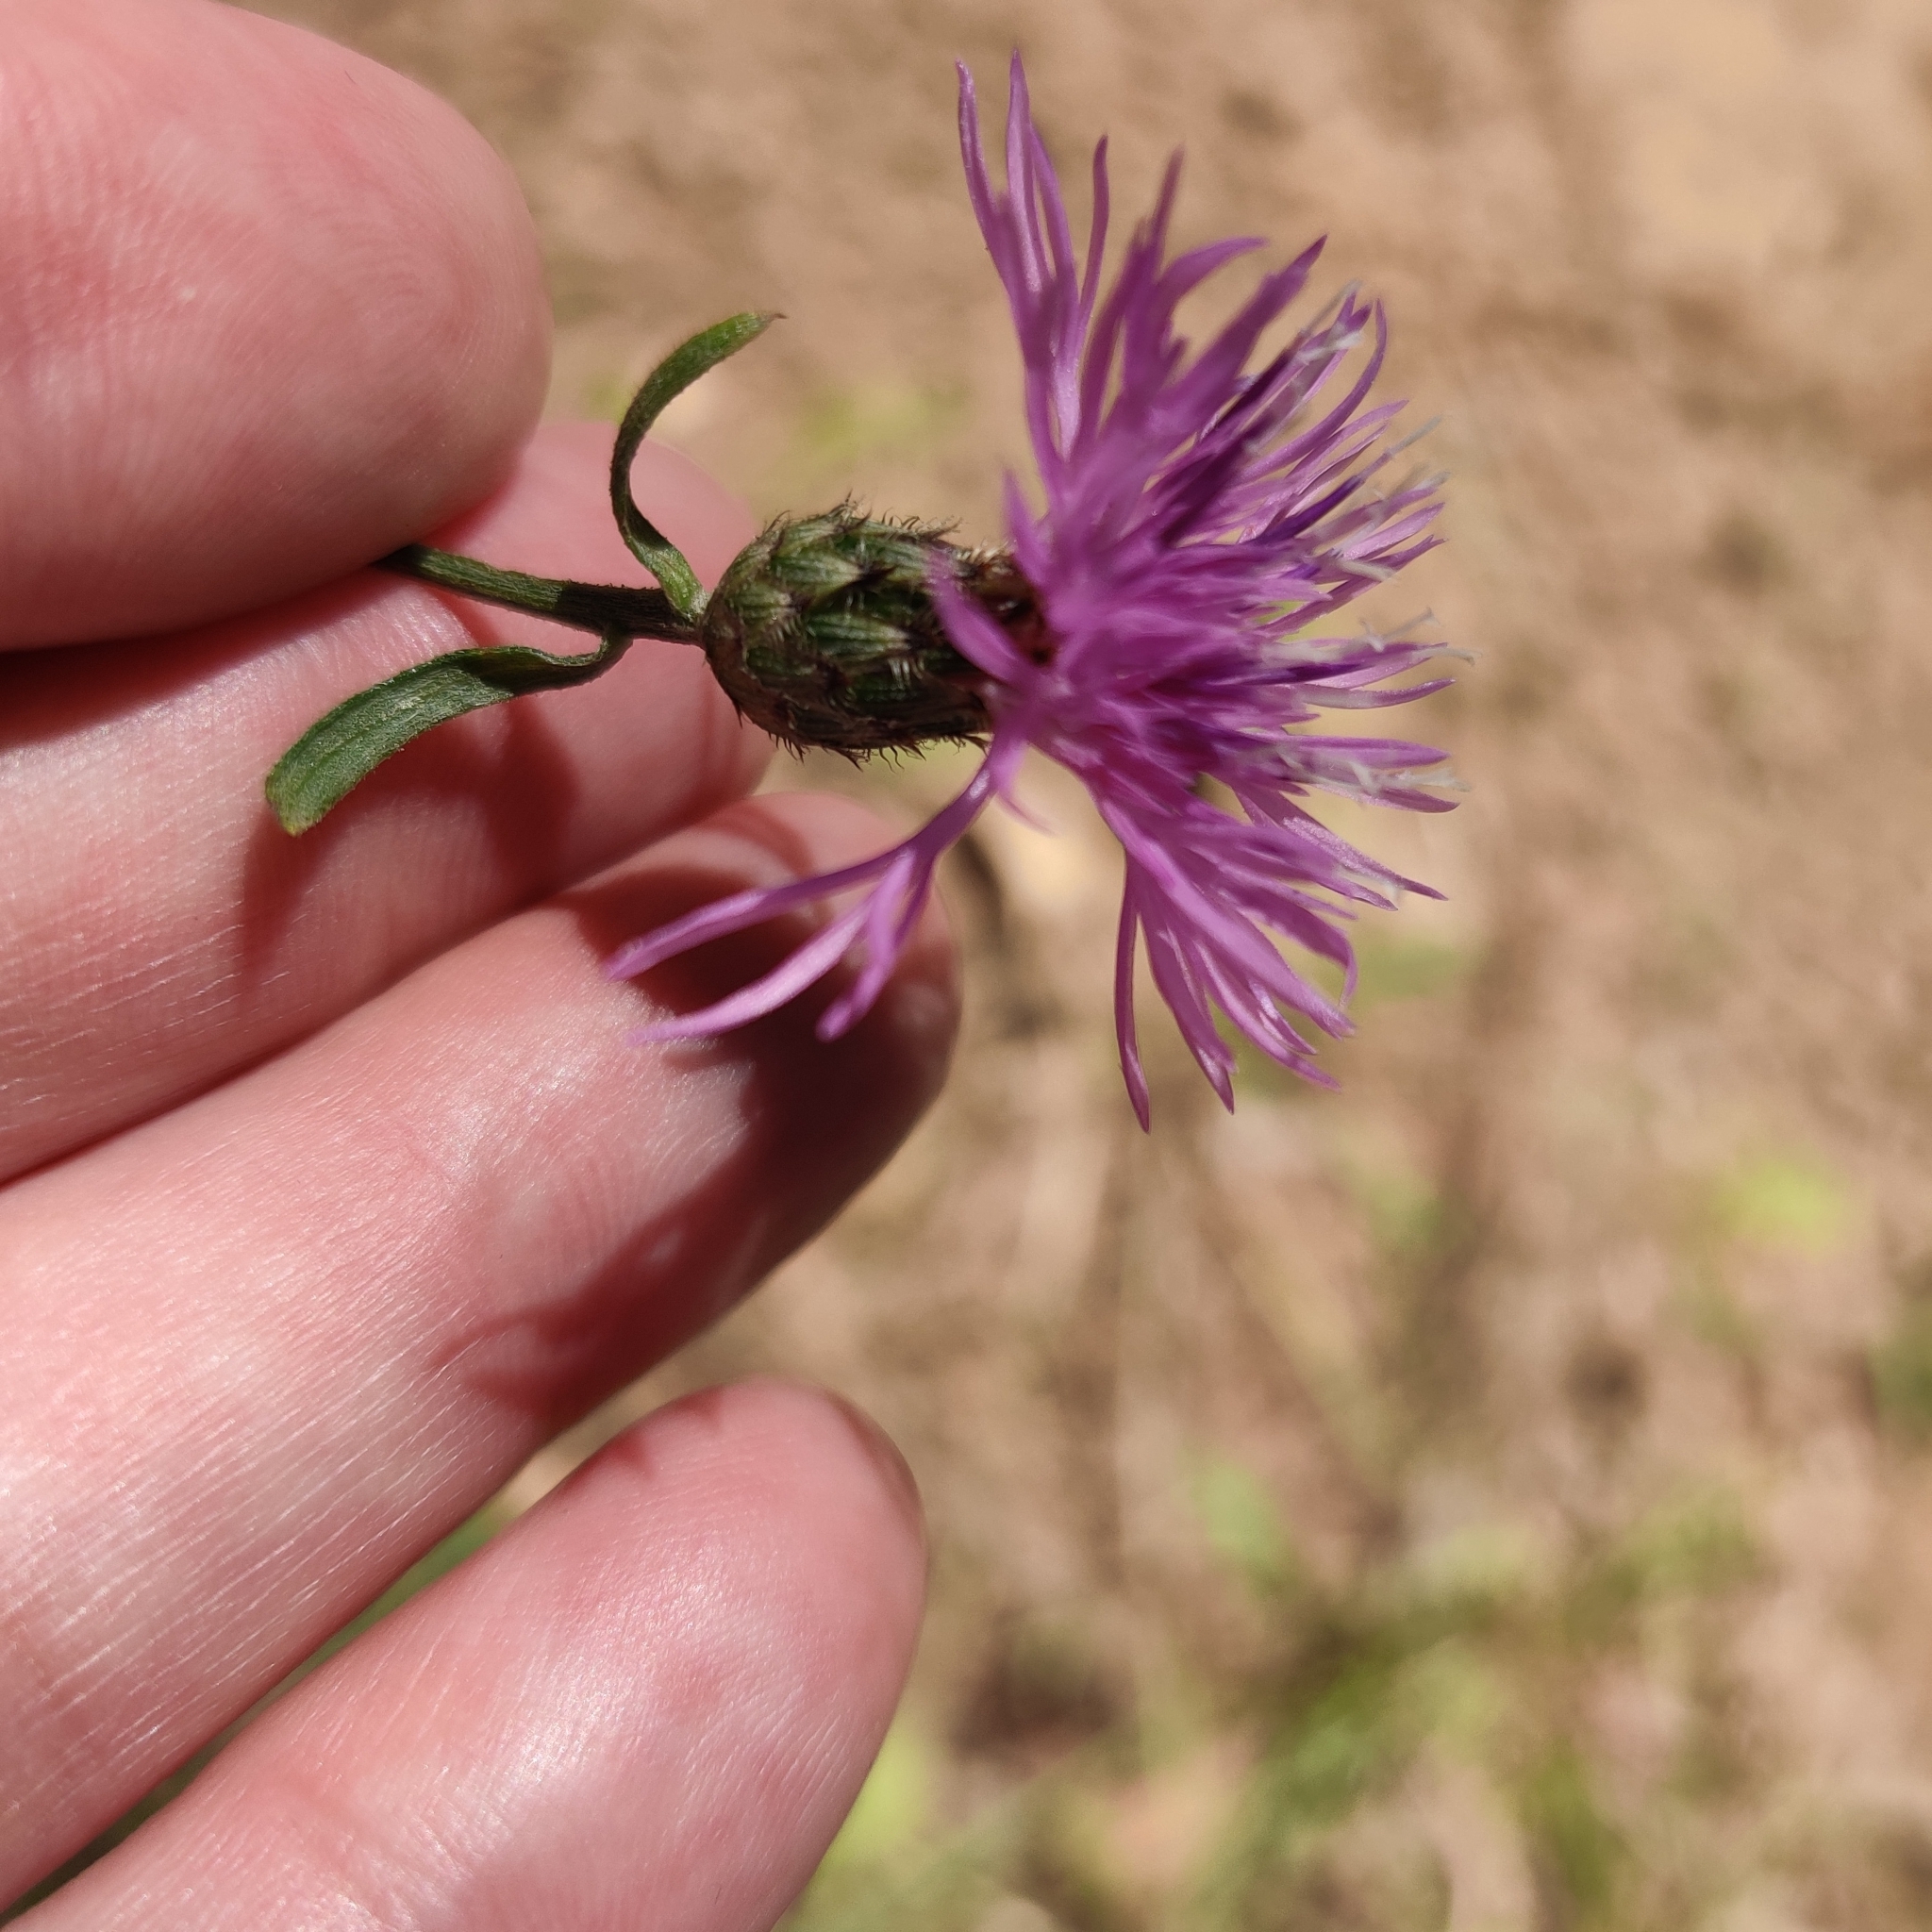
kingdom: Plantae
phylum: Tracheophyta
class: Magnoliopsida
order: Asterales
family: Asteraceae
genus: Centaurea
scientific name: Centaurea stoebe
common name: Spotted knapweed
